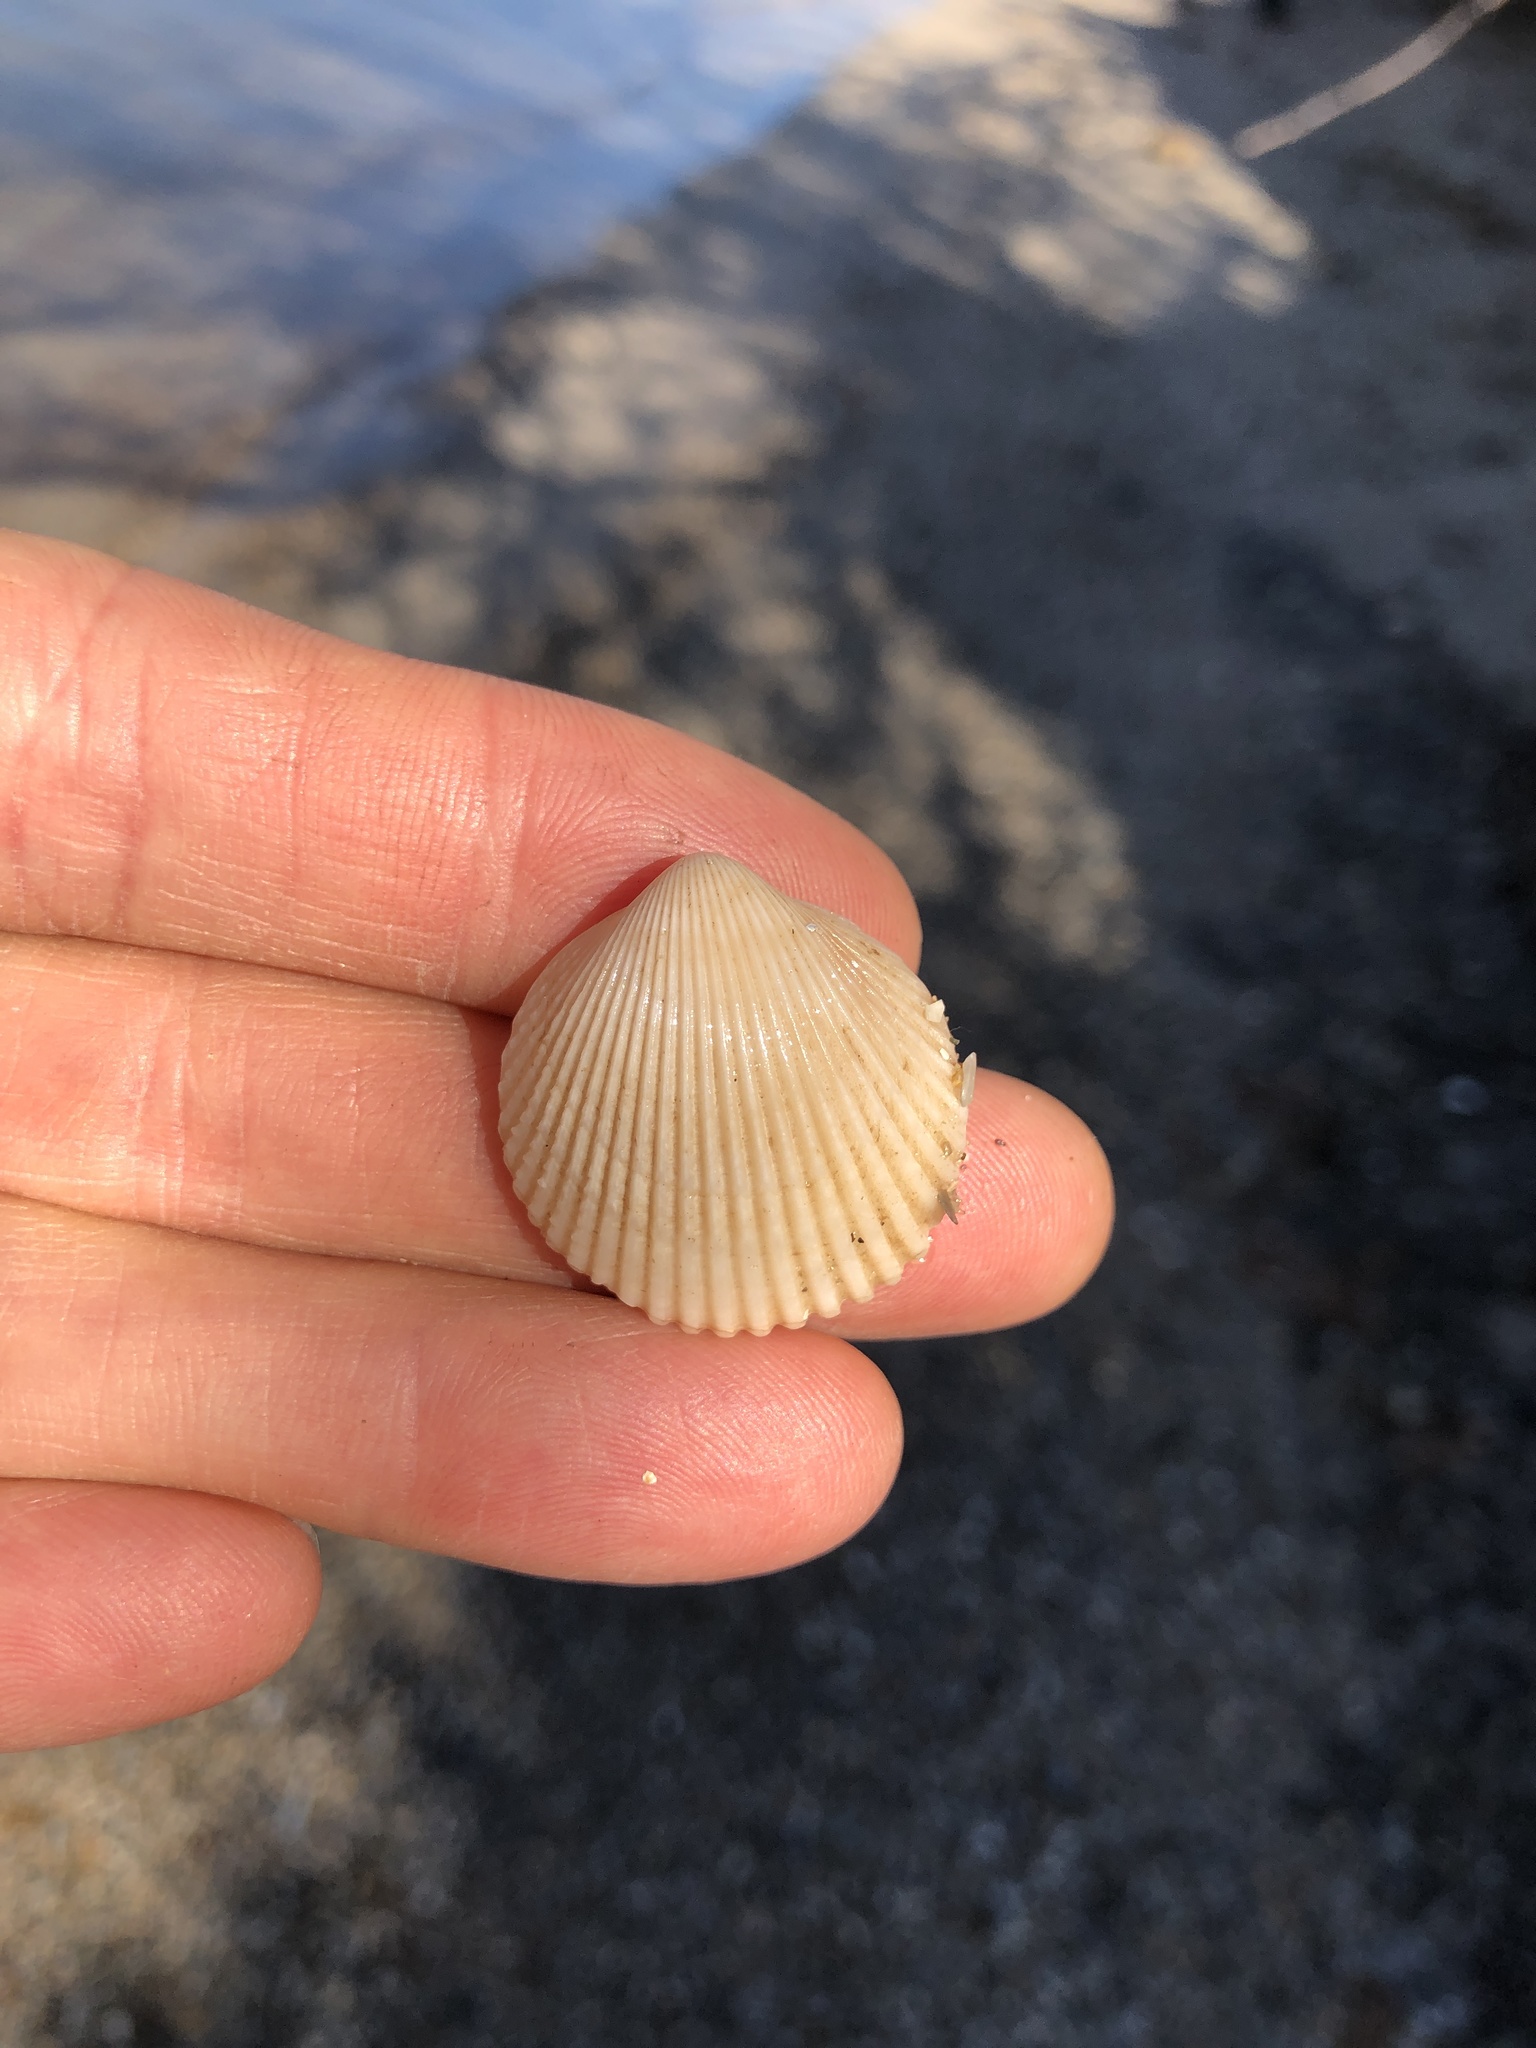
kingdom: Animalia
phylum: Mollusca
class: Bivalvia
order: Cardiida
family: Cardiidae
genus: Dallocardia
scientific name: Dallocardia muricata
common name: Yellow pricklycockle
